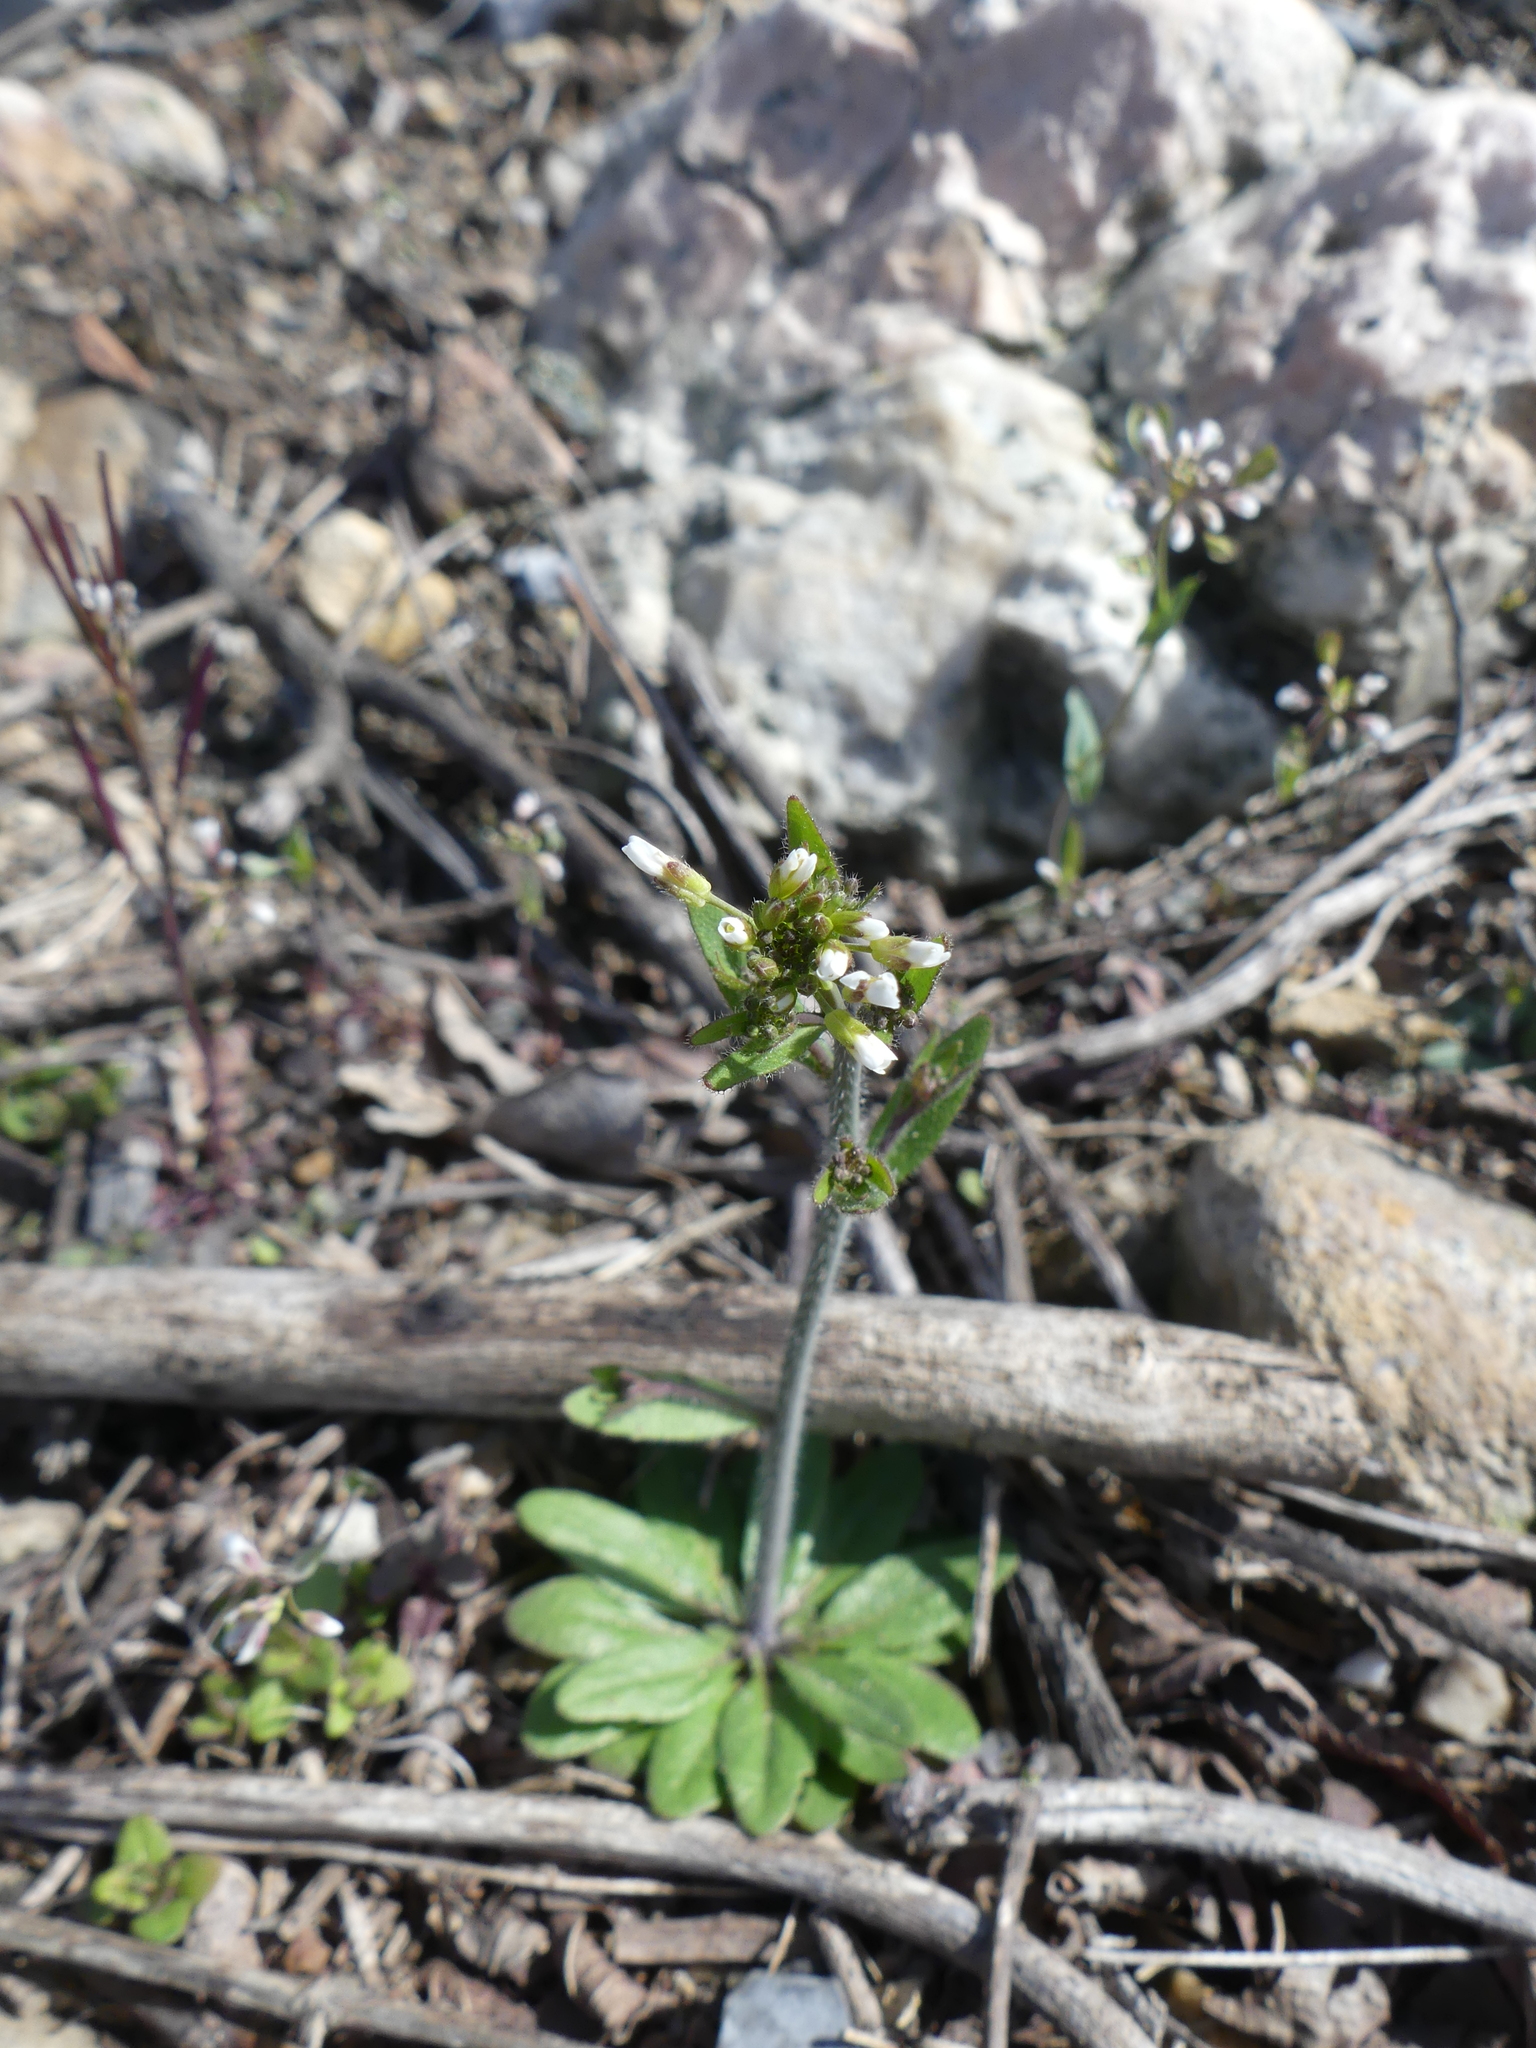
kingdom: Plantae
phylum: Tracheophyta
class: Magnoliopsida
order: Brassicales
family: Brassicaceae
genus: Arabidopsis
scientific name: Arabidopsis thaliana
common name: Thale cress
